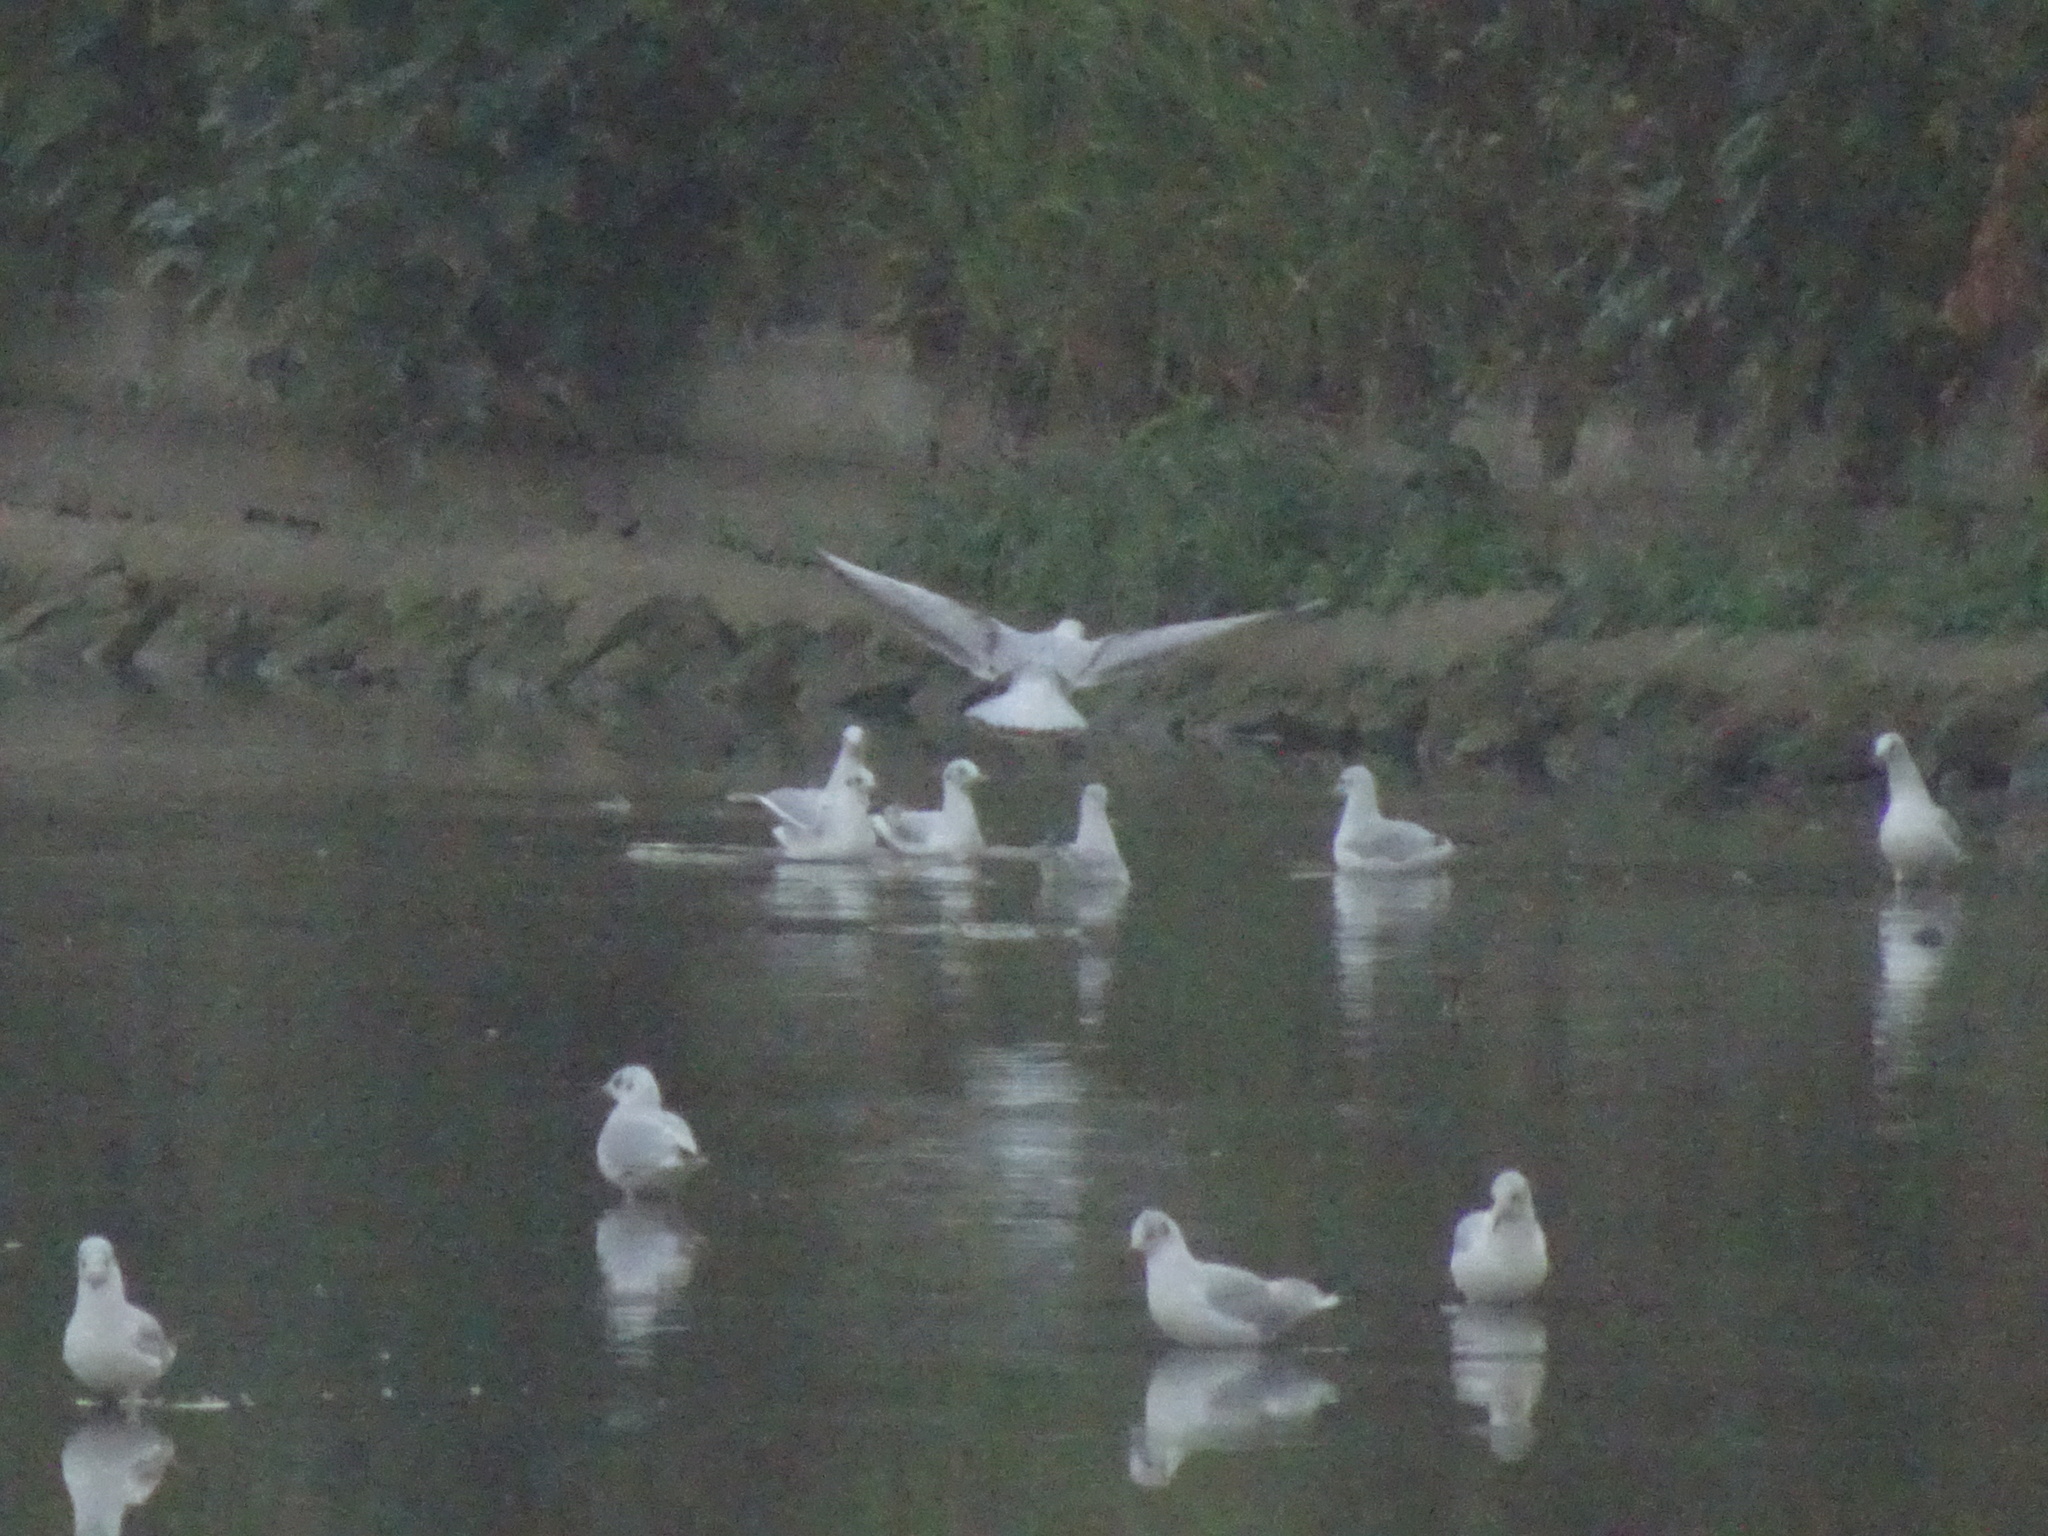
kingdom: Animalia
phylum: Chordata
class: Aves
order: Charadriiformes
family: Laridae
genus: Chroicocephalus
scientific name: Chroicocephalus ridibundus
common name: Black-headed gull
